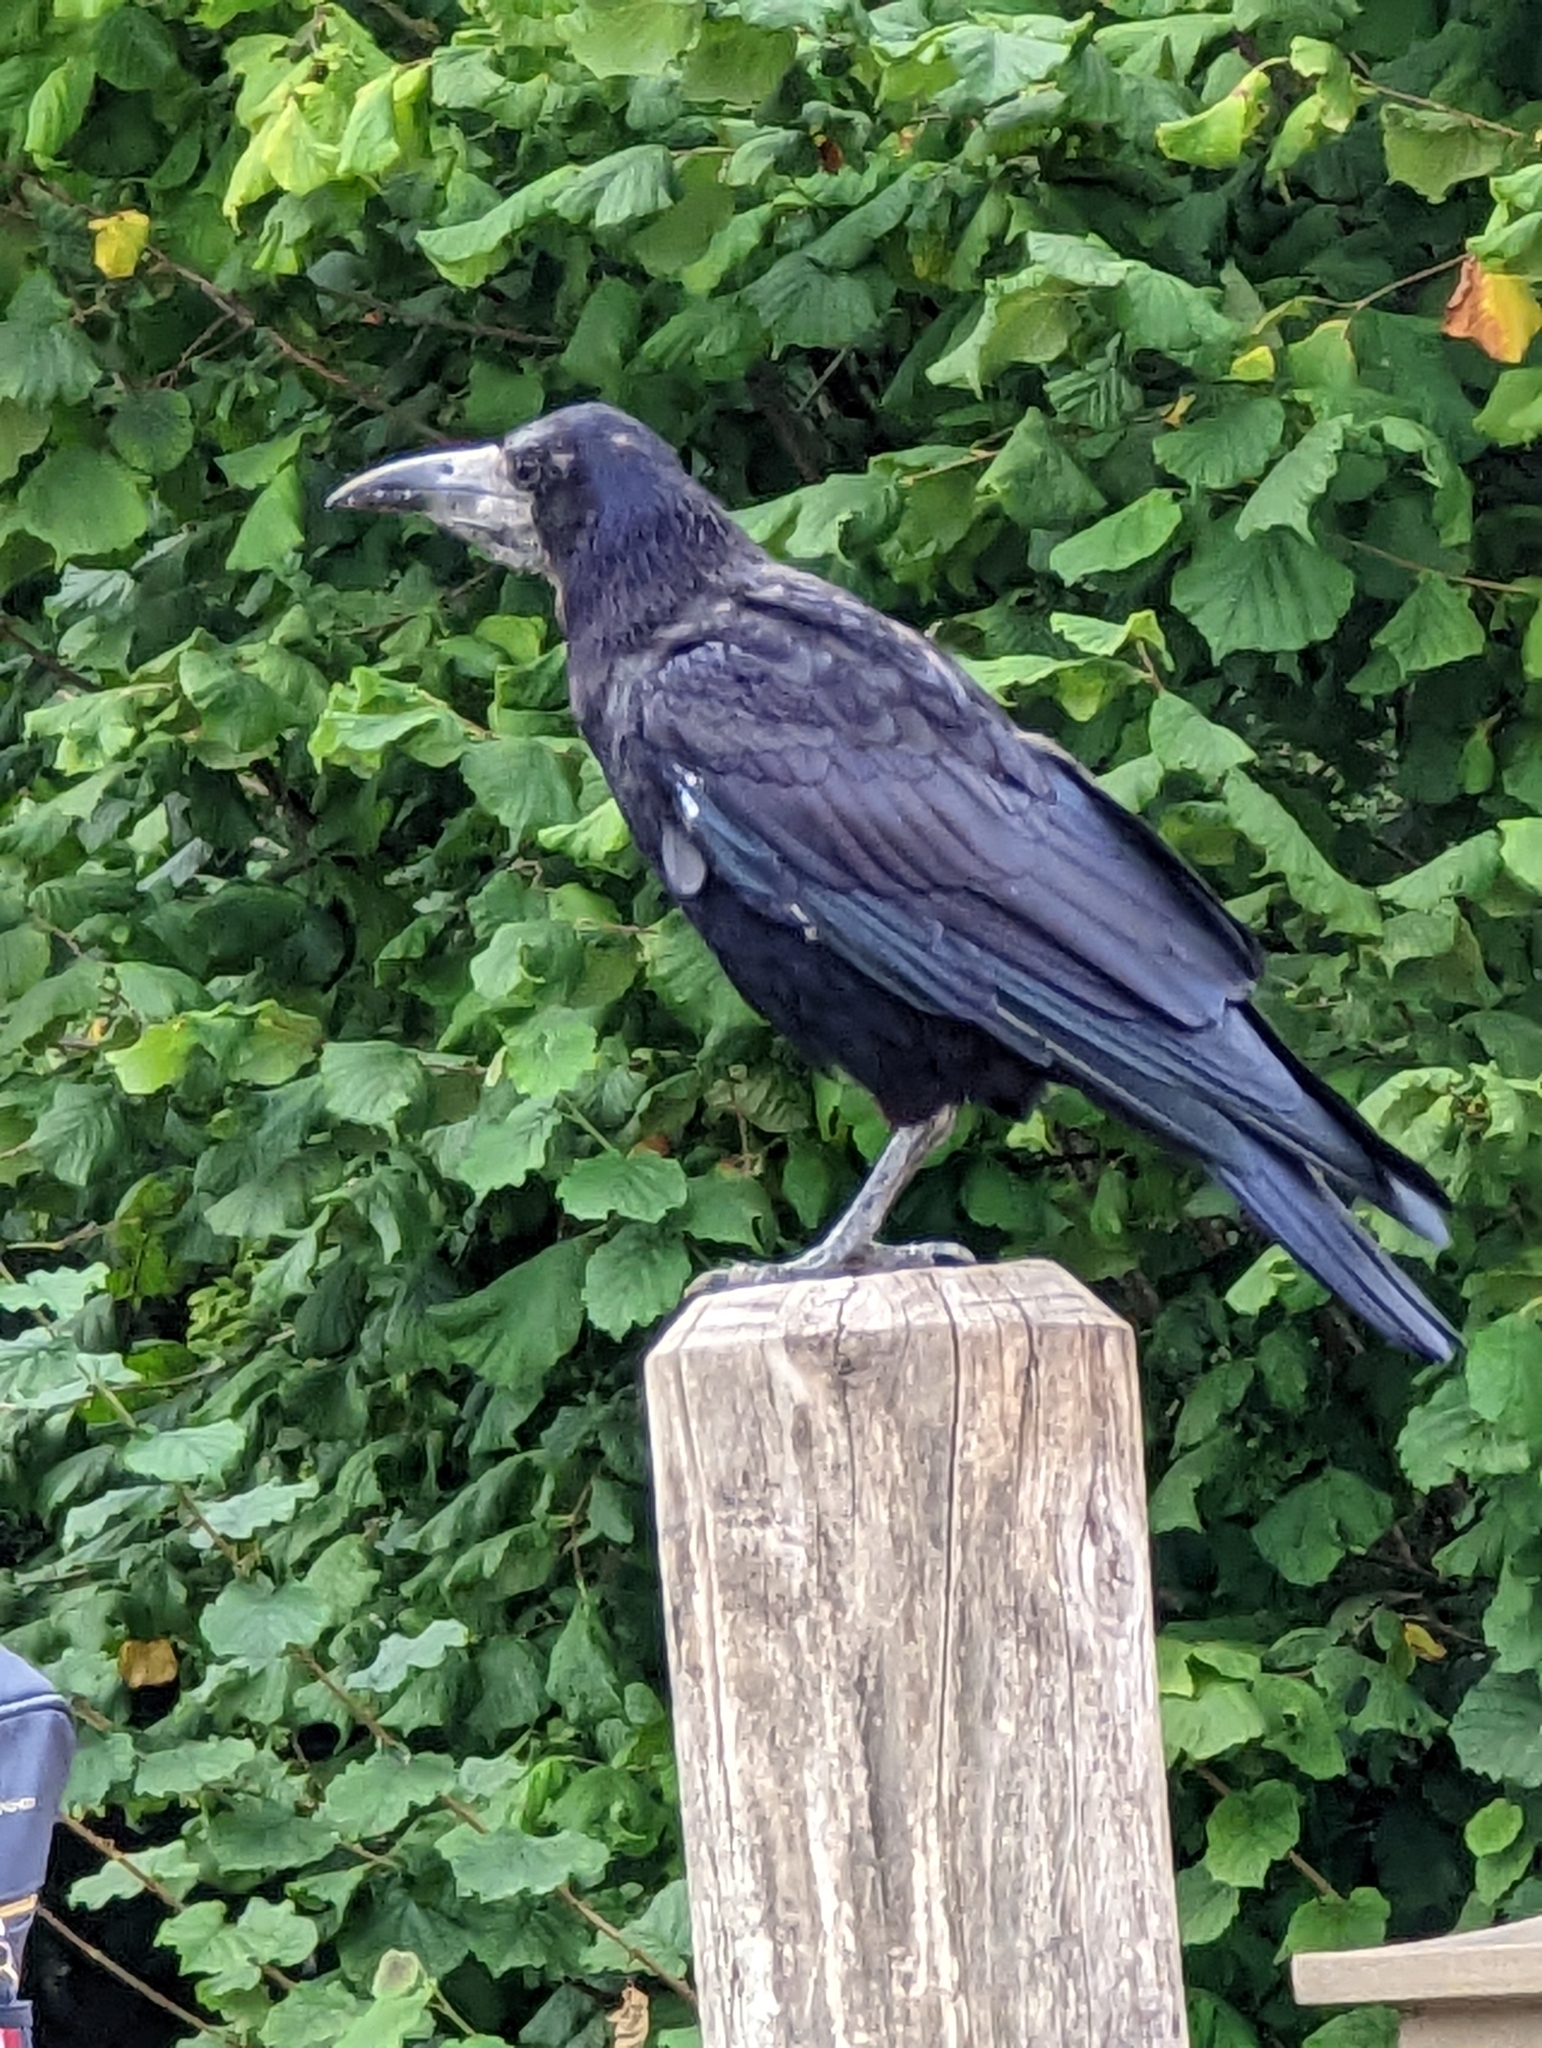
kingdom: Animalia
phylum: Chordata
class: Aves
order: Passeriformes
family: Corvidae
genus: Corvus
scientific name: Corvus frugilegus
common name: Rook
